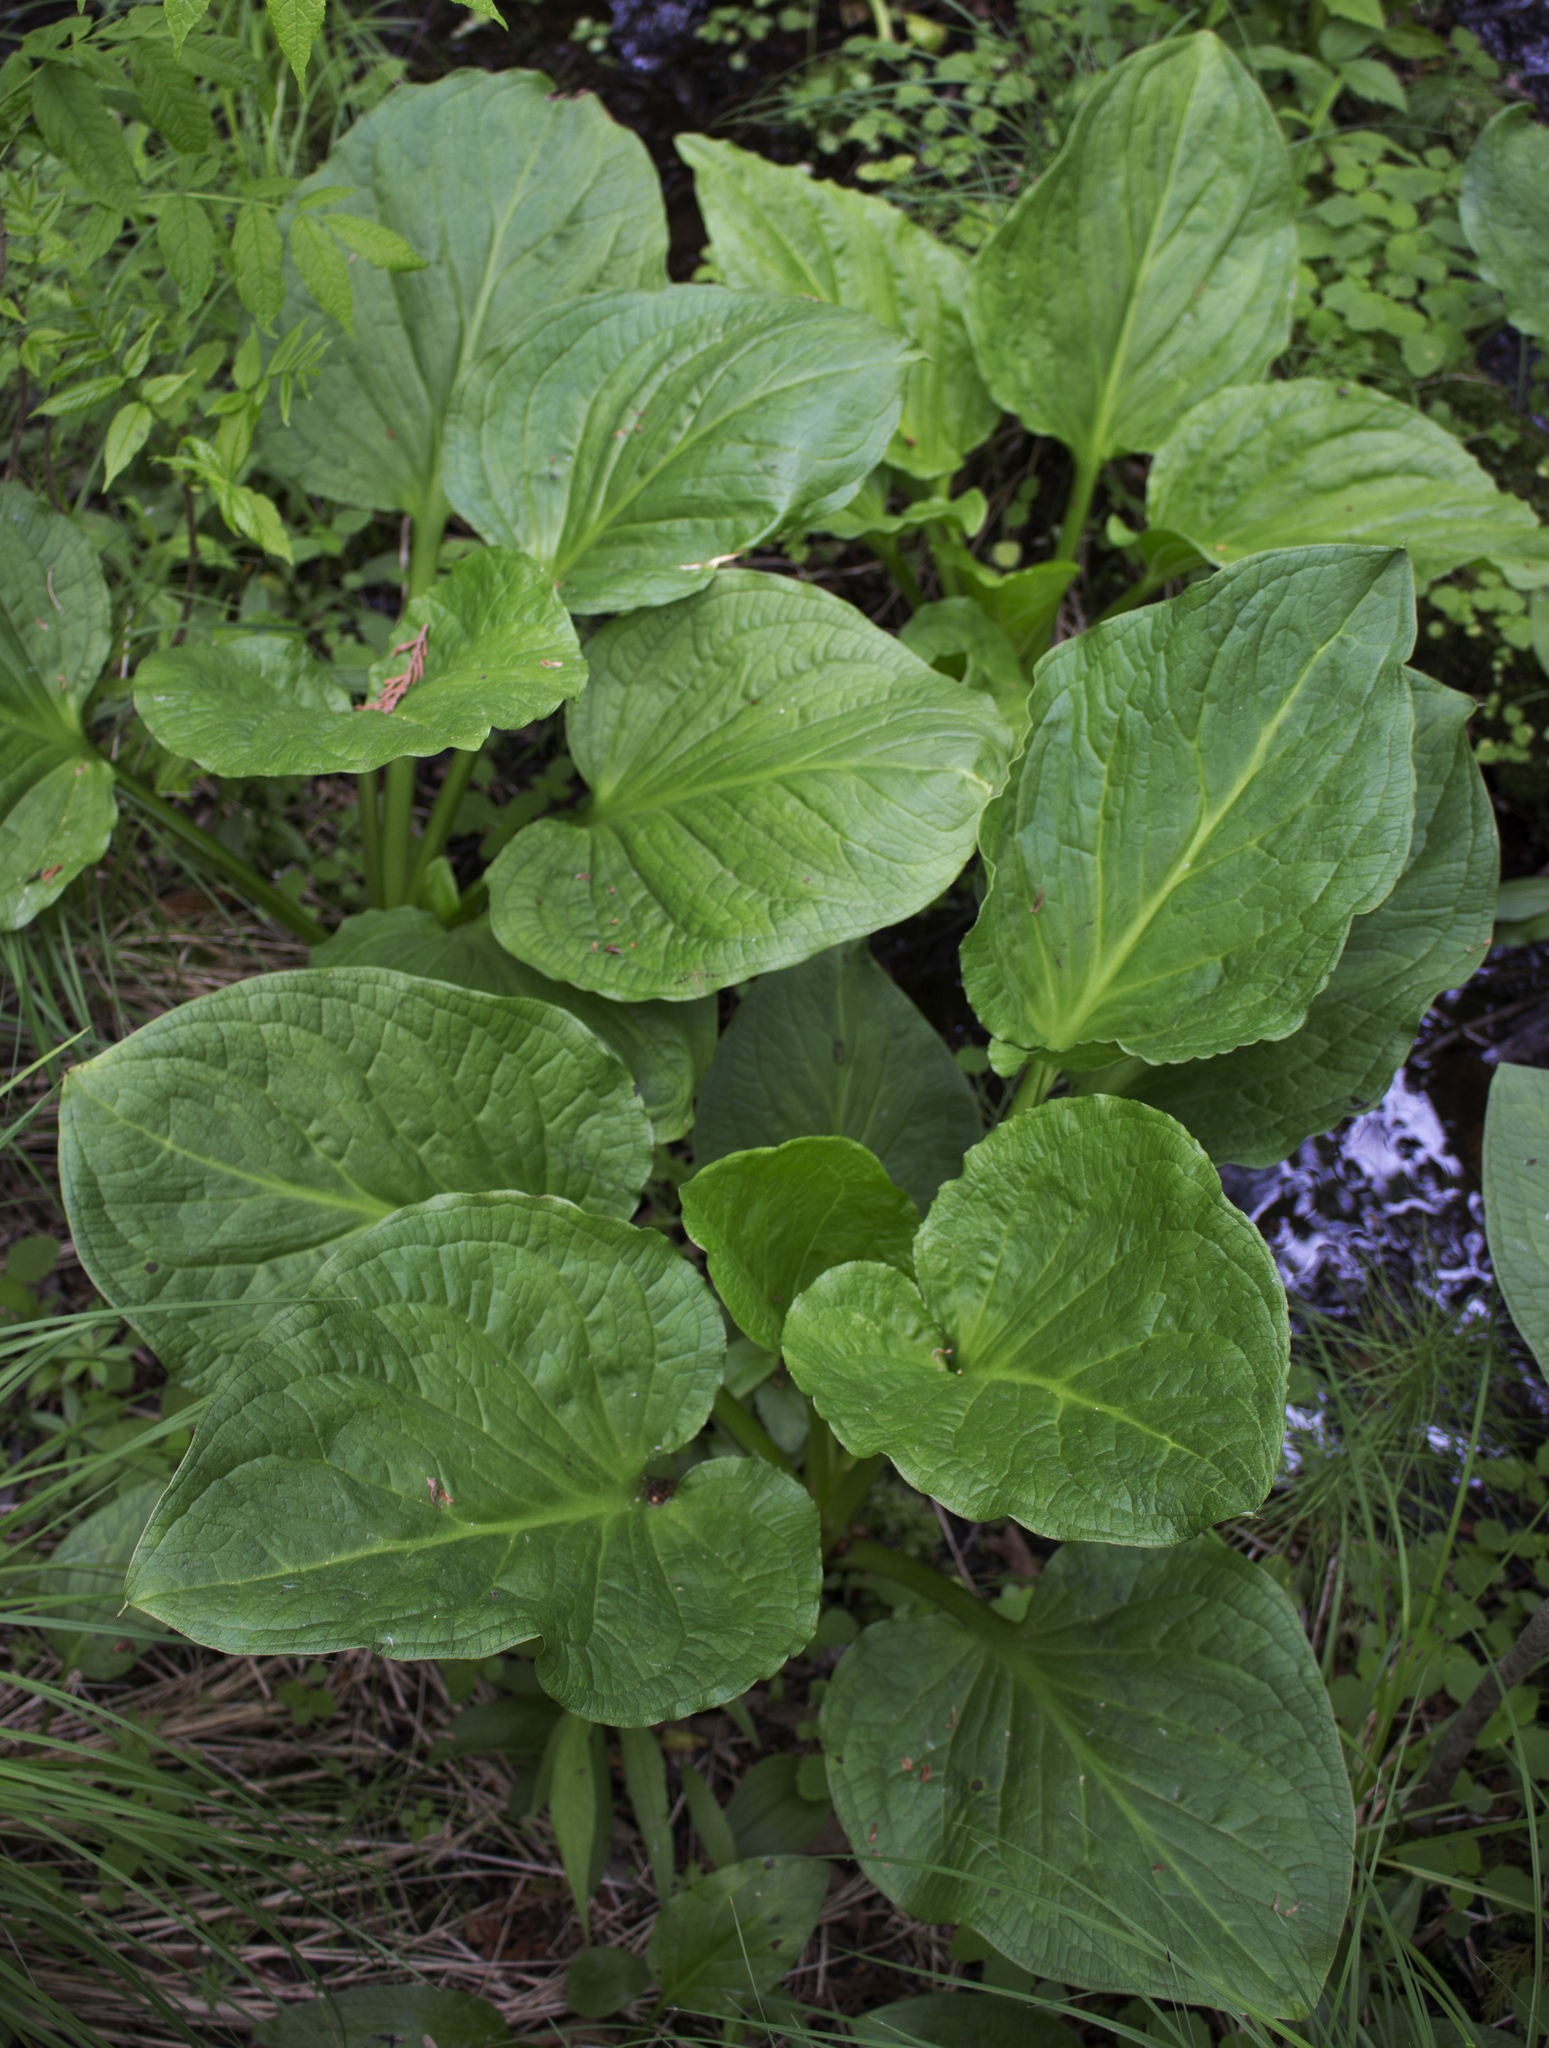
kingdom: Plantae
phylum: Tracheophyta
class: Liliopsida
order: Alismatales
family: Araceae
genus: Symplocarpus
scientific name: Symplocarpus foetidus
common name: Eastern skunk cabbage
